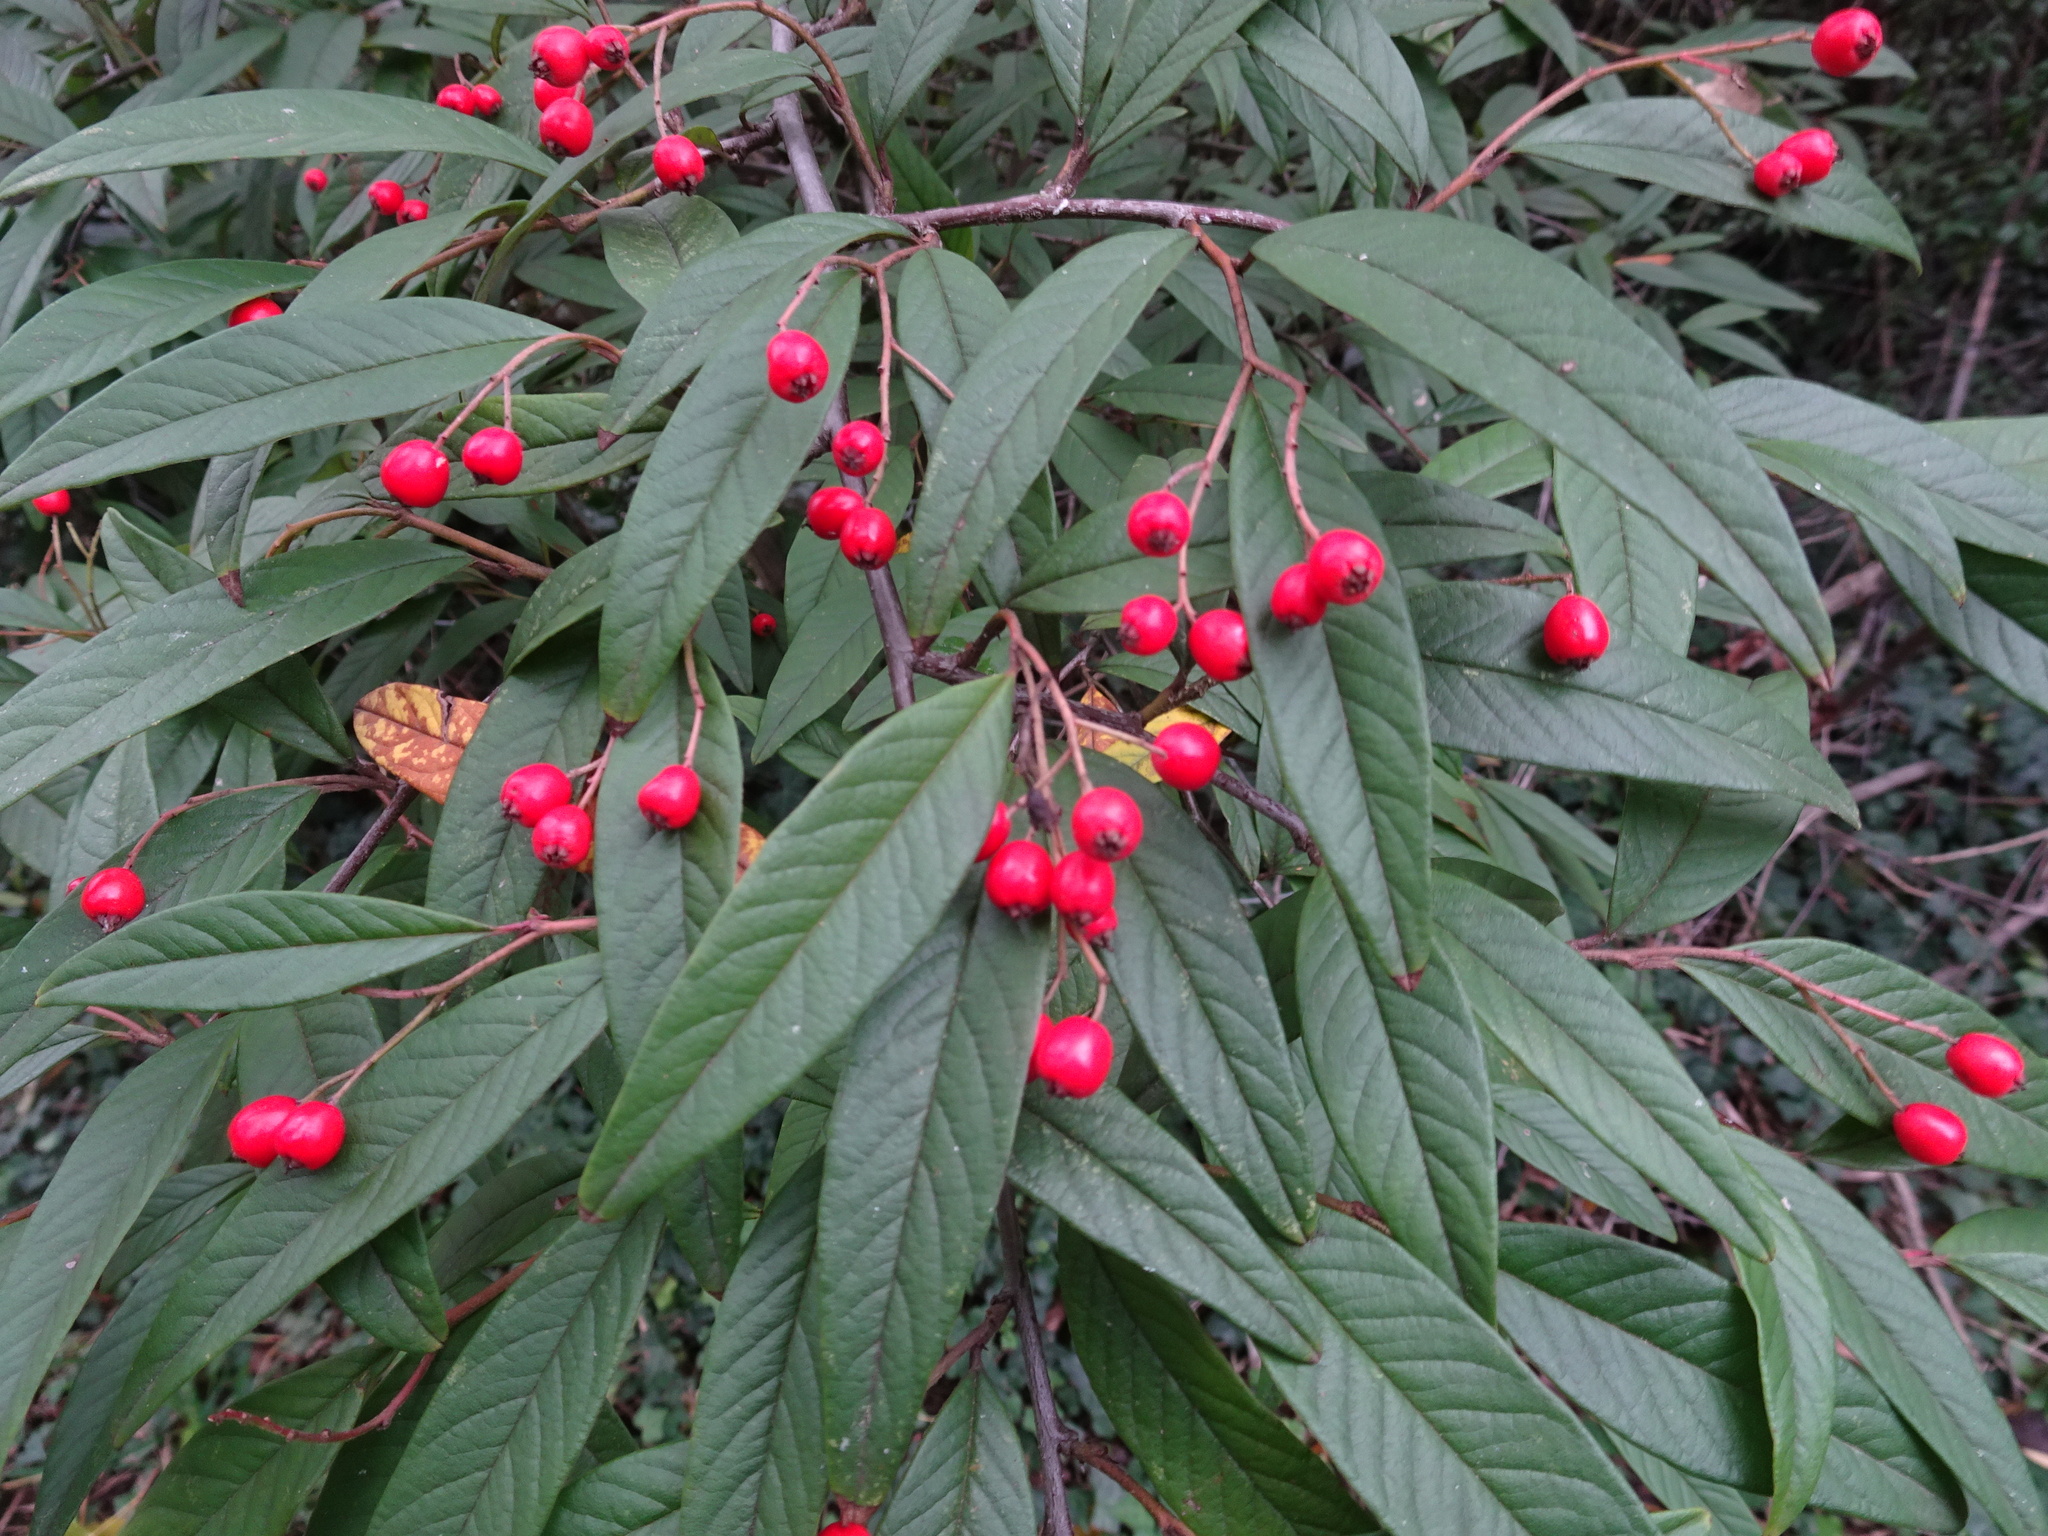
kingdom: Plantae
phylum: Tracheophyta
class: Magnoliopsida
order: Rosales
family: Rosaceae
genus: Cotoneaster
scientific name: Cotoneaster salicifolius
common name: Willow-leaved cotoneaster
